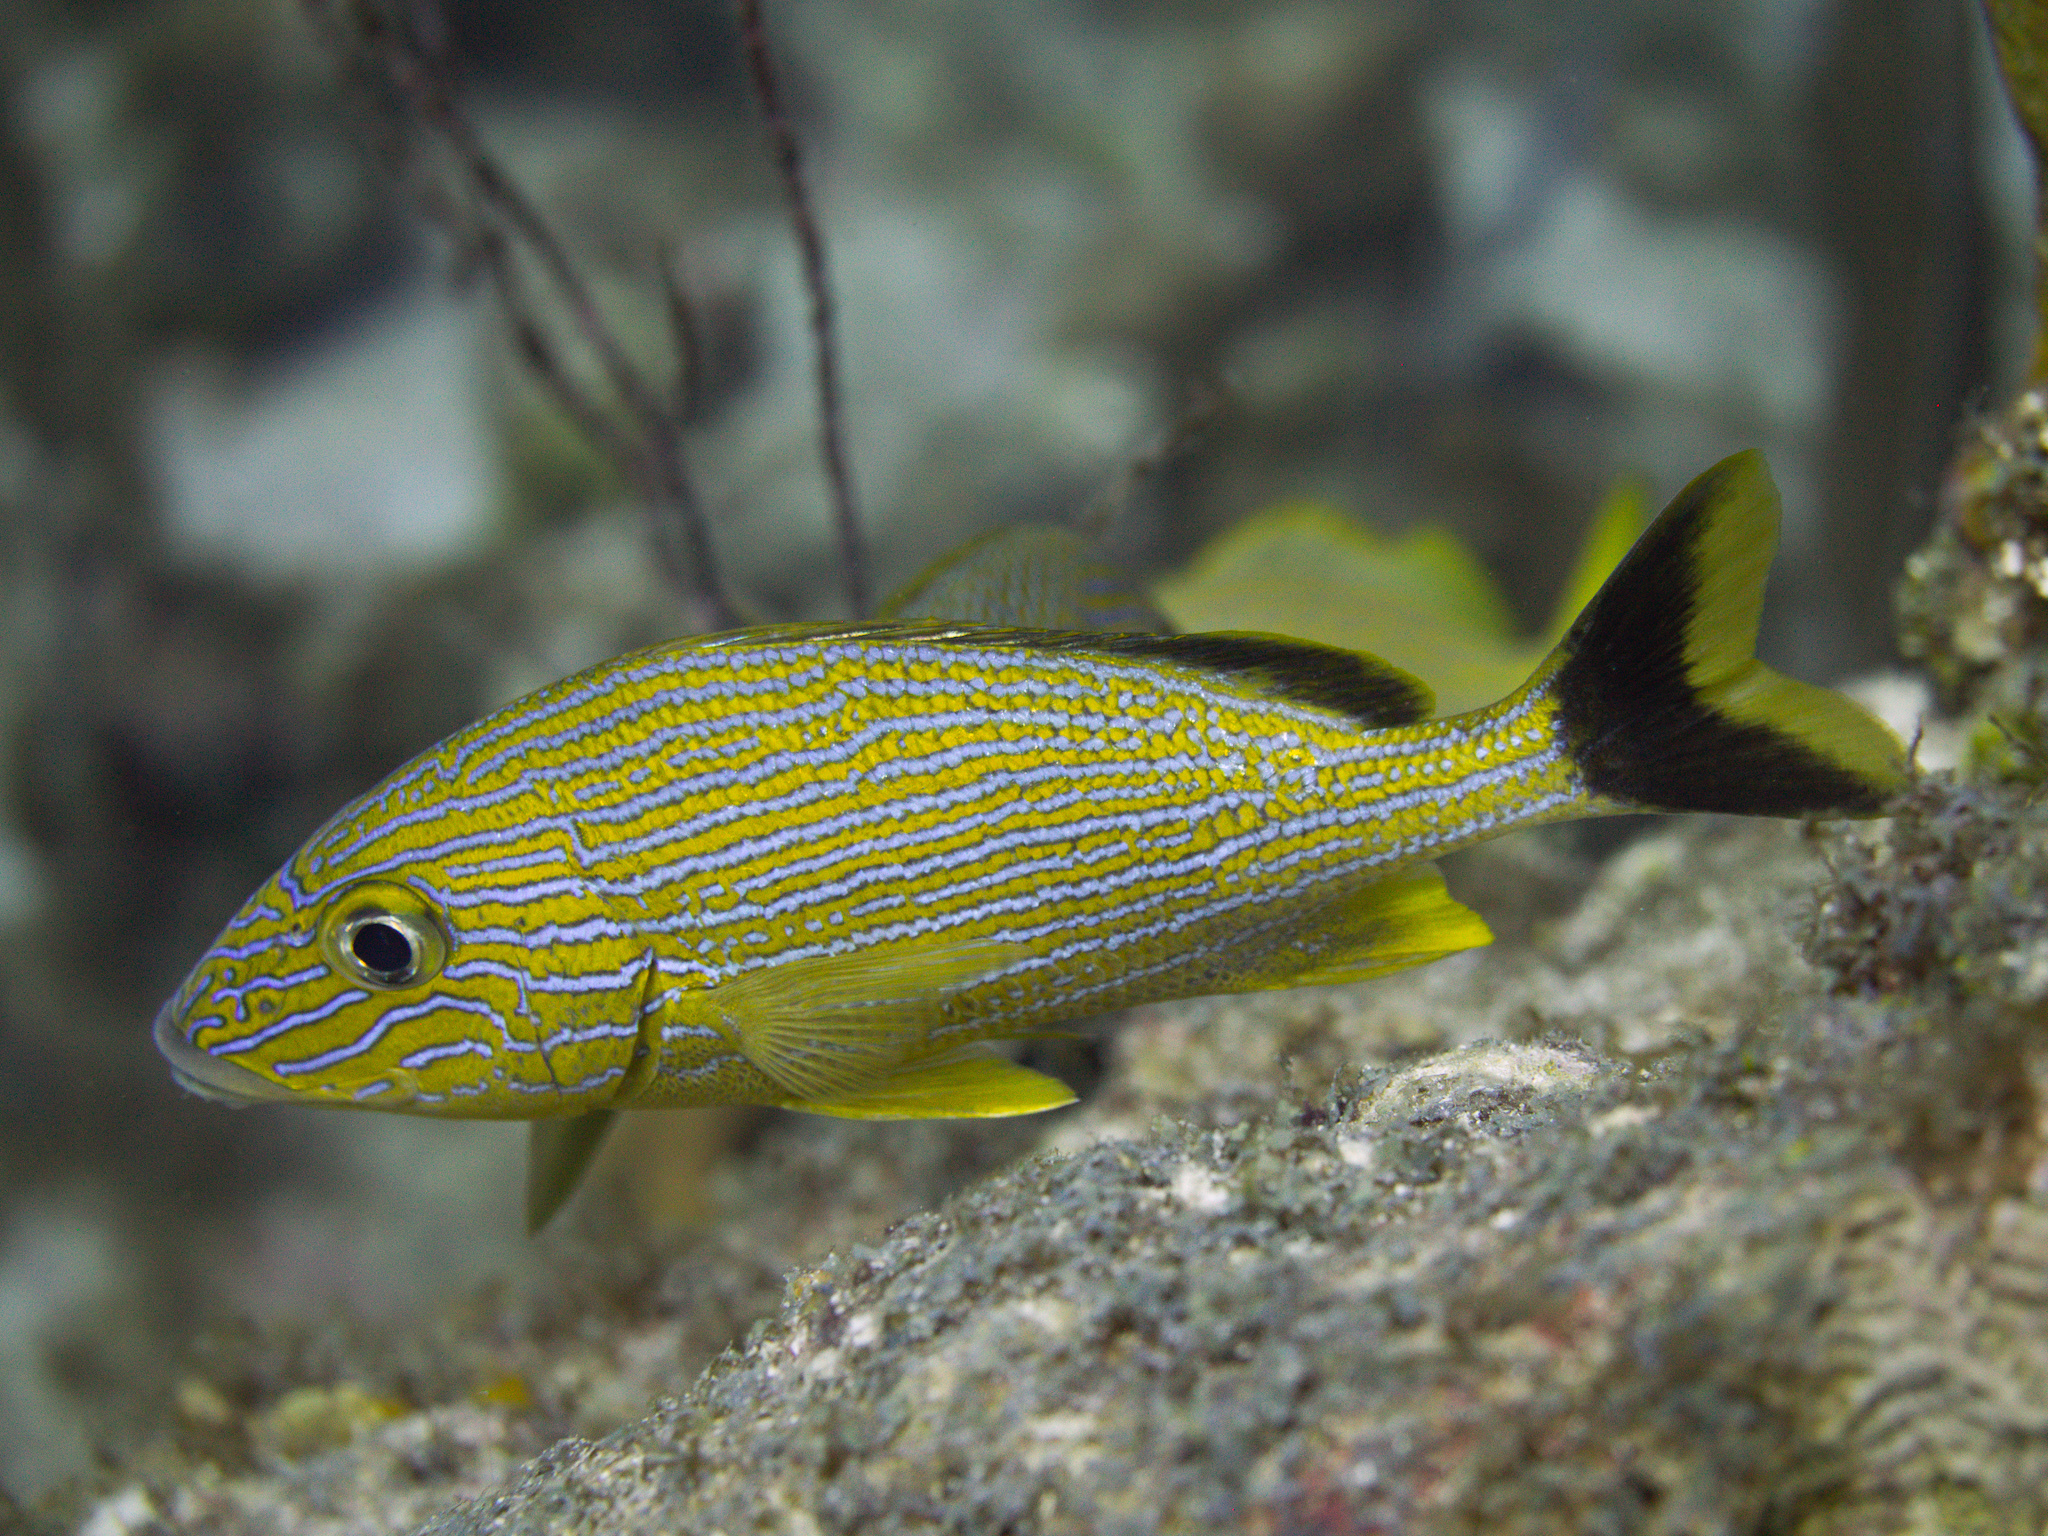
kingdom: Animalia
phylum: Chordata
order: Perciformes
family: Haemulidae
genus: Haemulon
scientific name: Haemulon sciurus
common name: Bluestriped grunt
